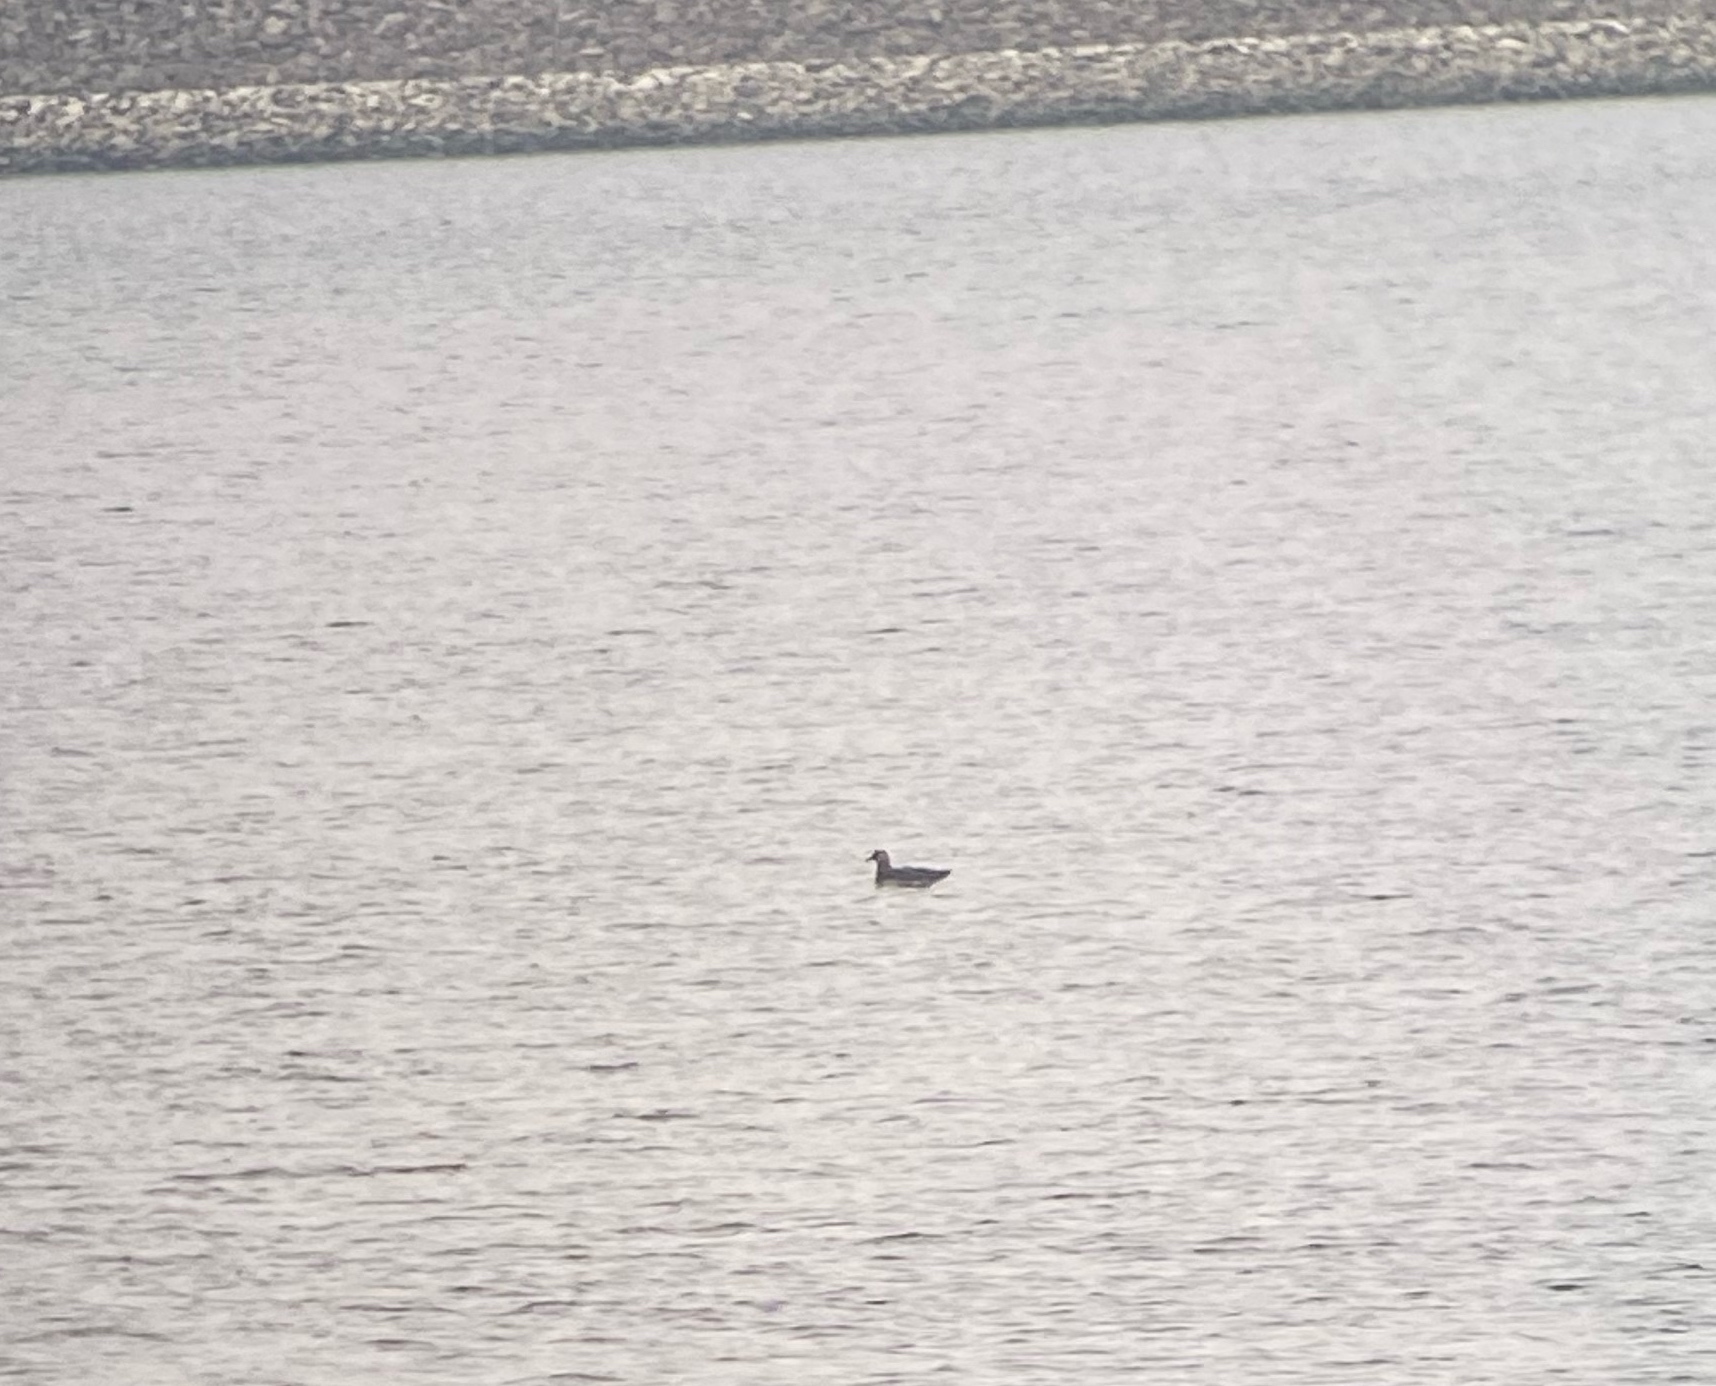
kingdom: Animalia
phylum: Chordata
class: Aves
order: Charadriiformes
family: Stercorariidae
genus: Stercorarius
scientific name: Stercorarius pomarinus
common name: Pomarine jaeger
